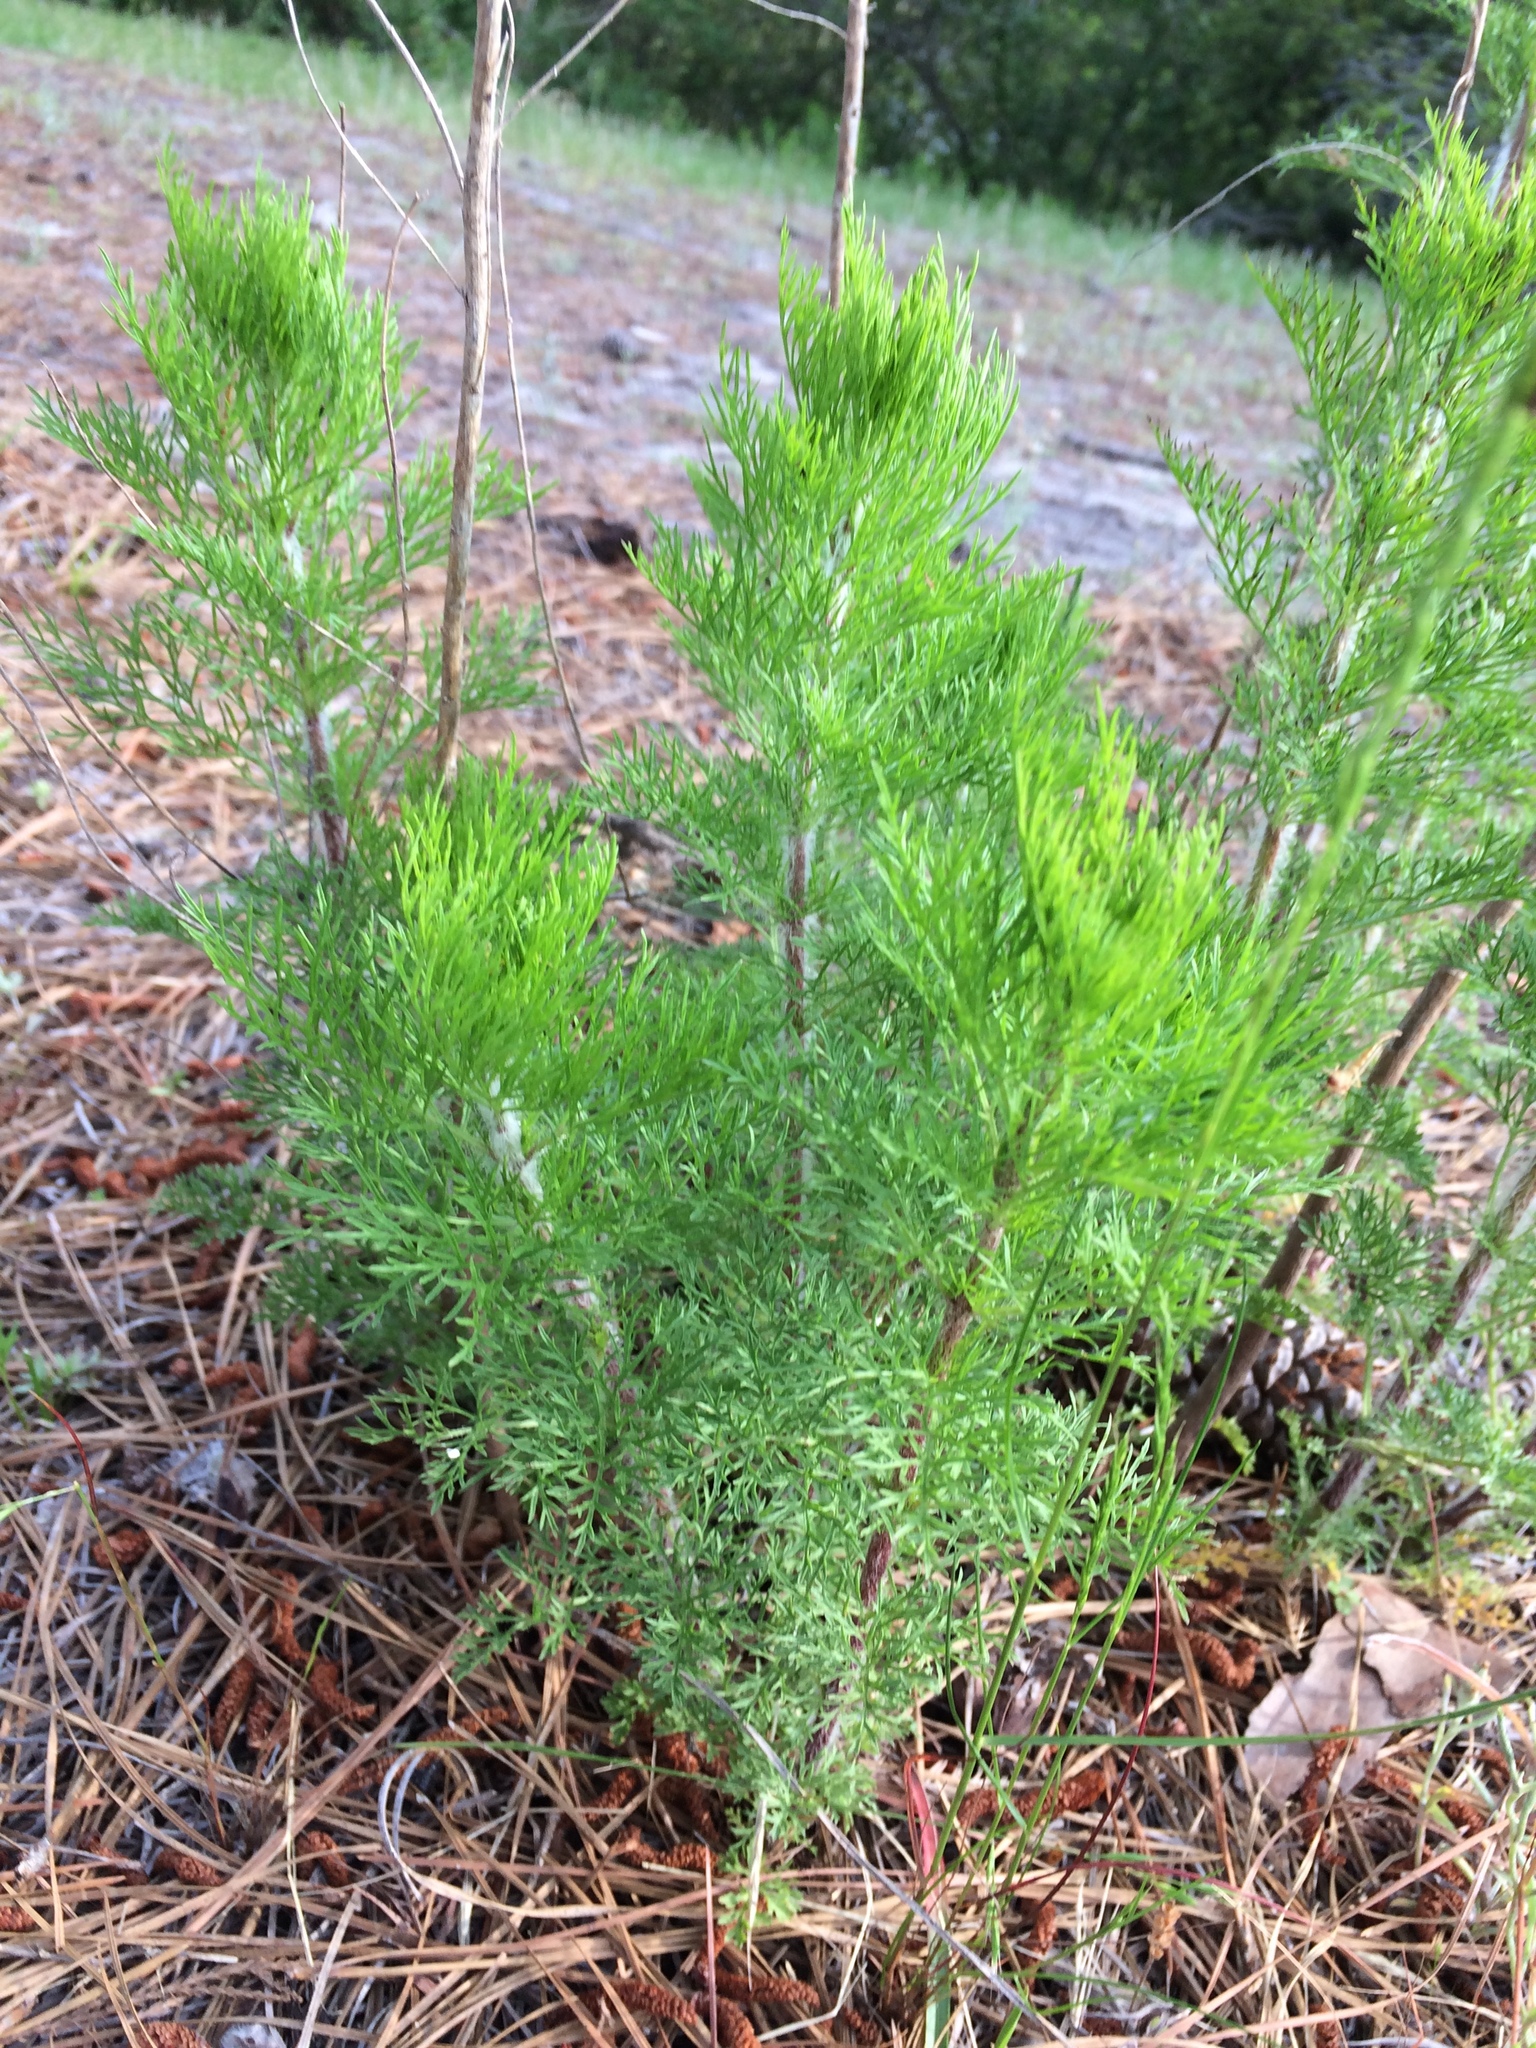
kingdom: Plantae
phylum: Tracheophyta
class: Magnoliopsida
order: Asterales
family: Asteraceae
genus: Eupatorium
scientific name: Eupatorium capillifolium
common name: Dog-fennel
